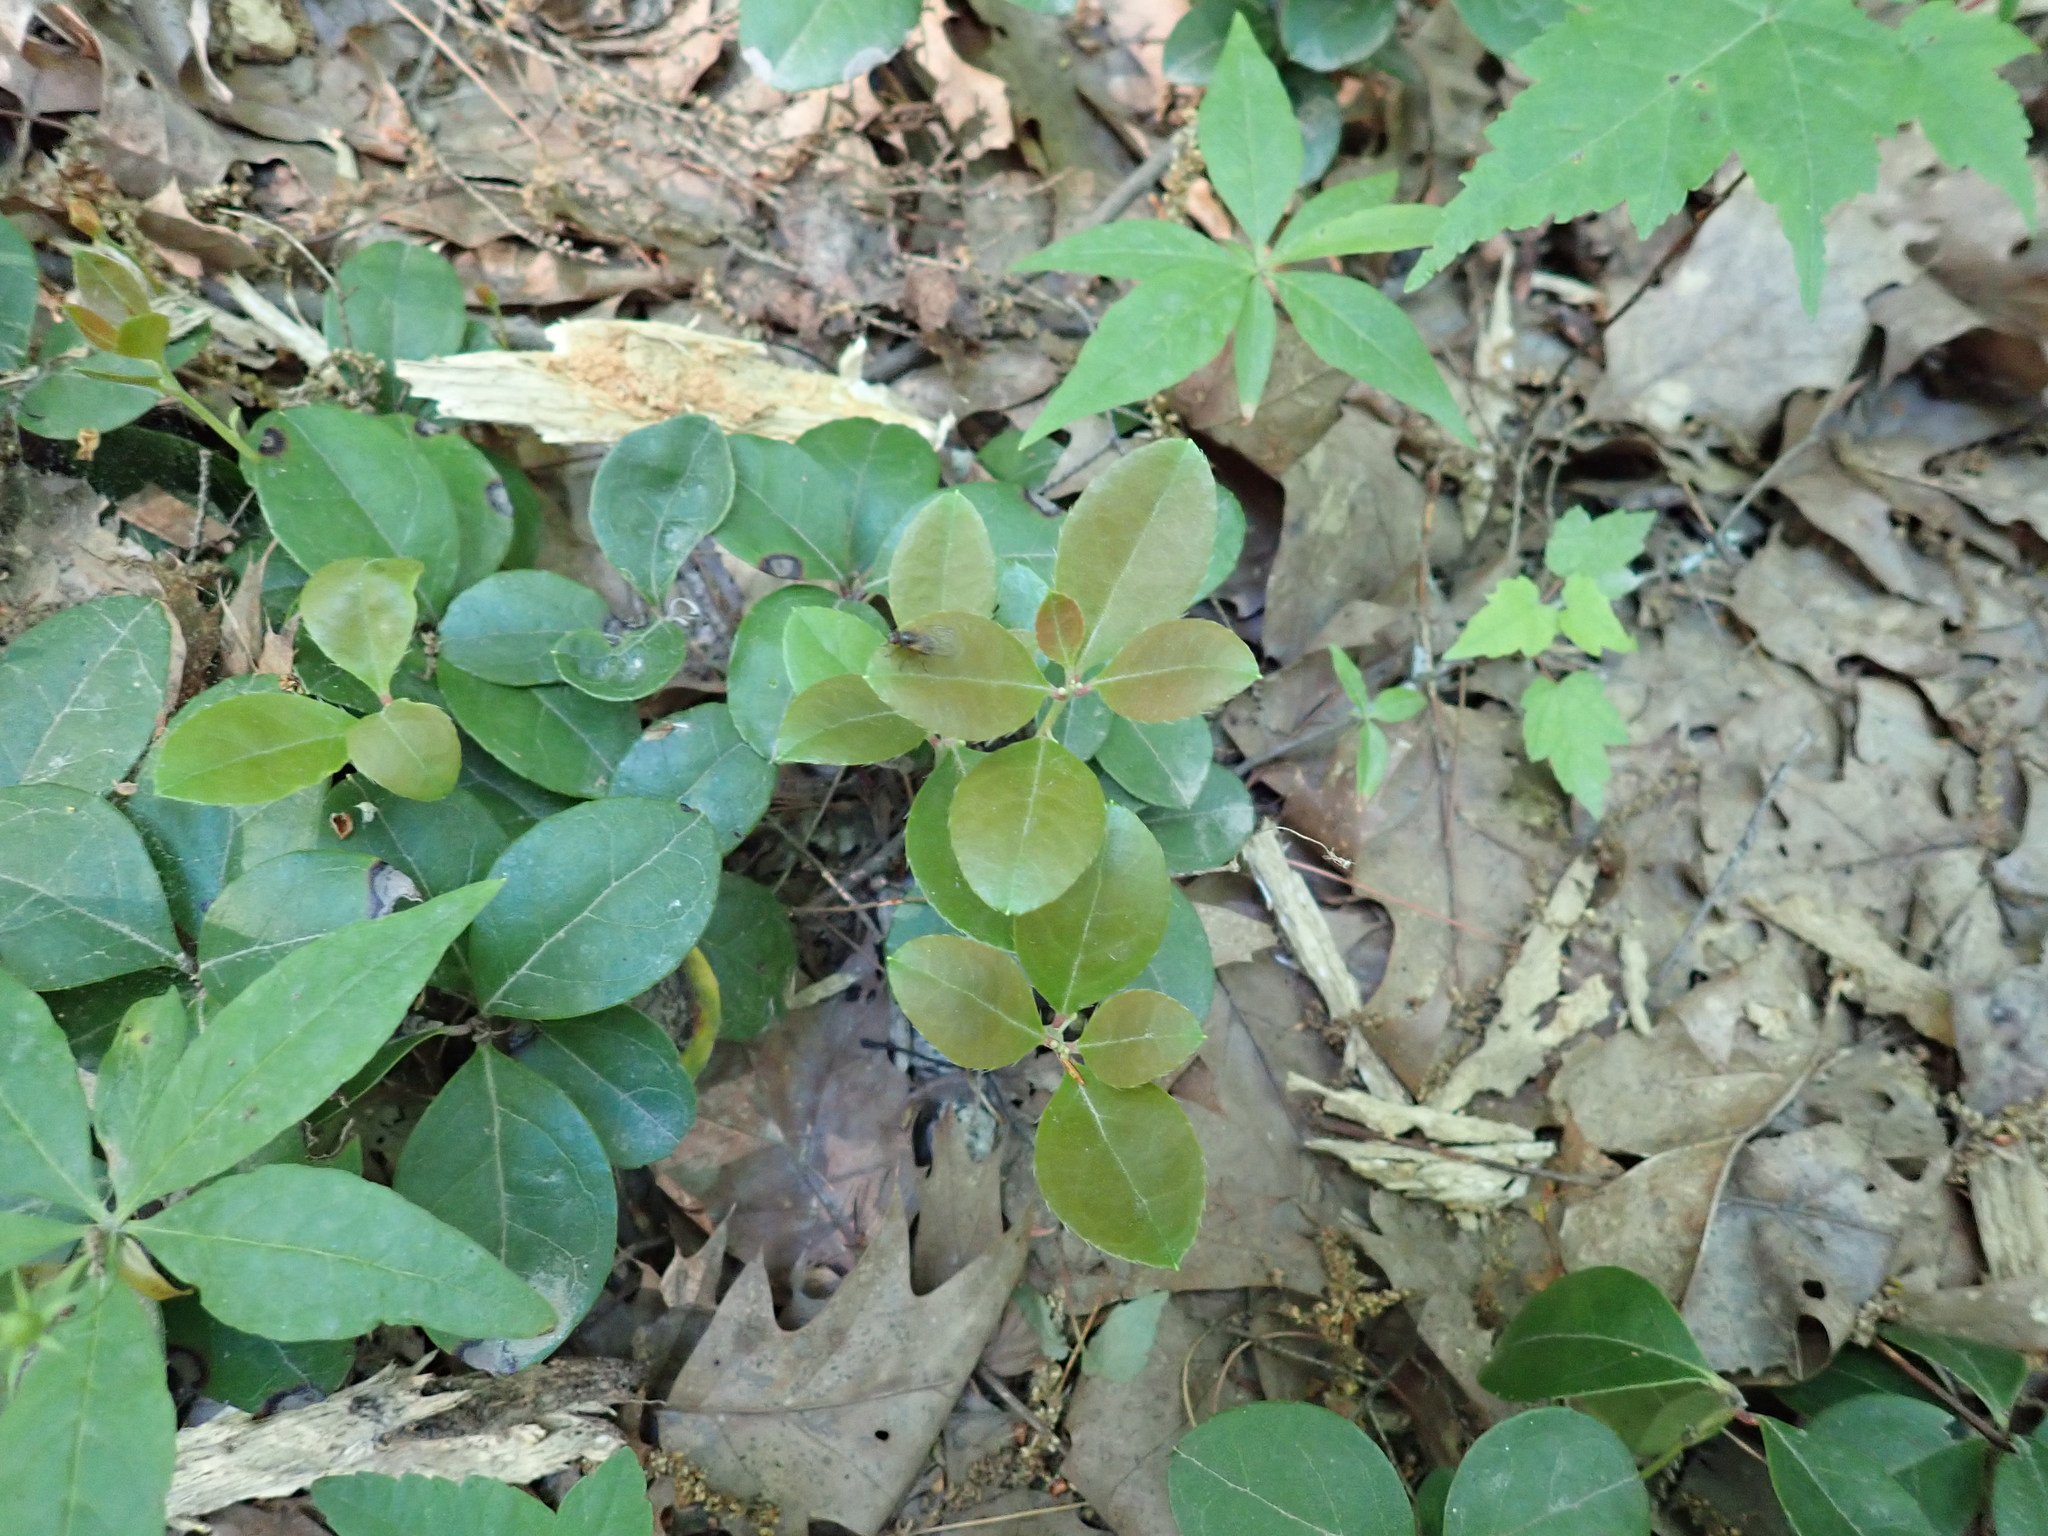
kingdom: Plantae
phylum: Tracheophyta
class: Magnoliopsida
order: Ericales
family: Ericaceae
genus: Gaultheria
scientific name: Gaultheria procumbens
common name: Checkerberry
